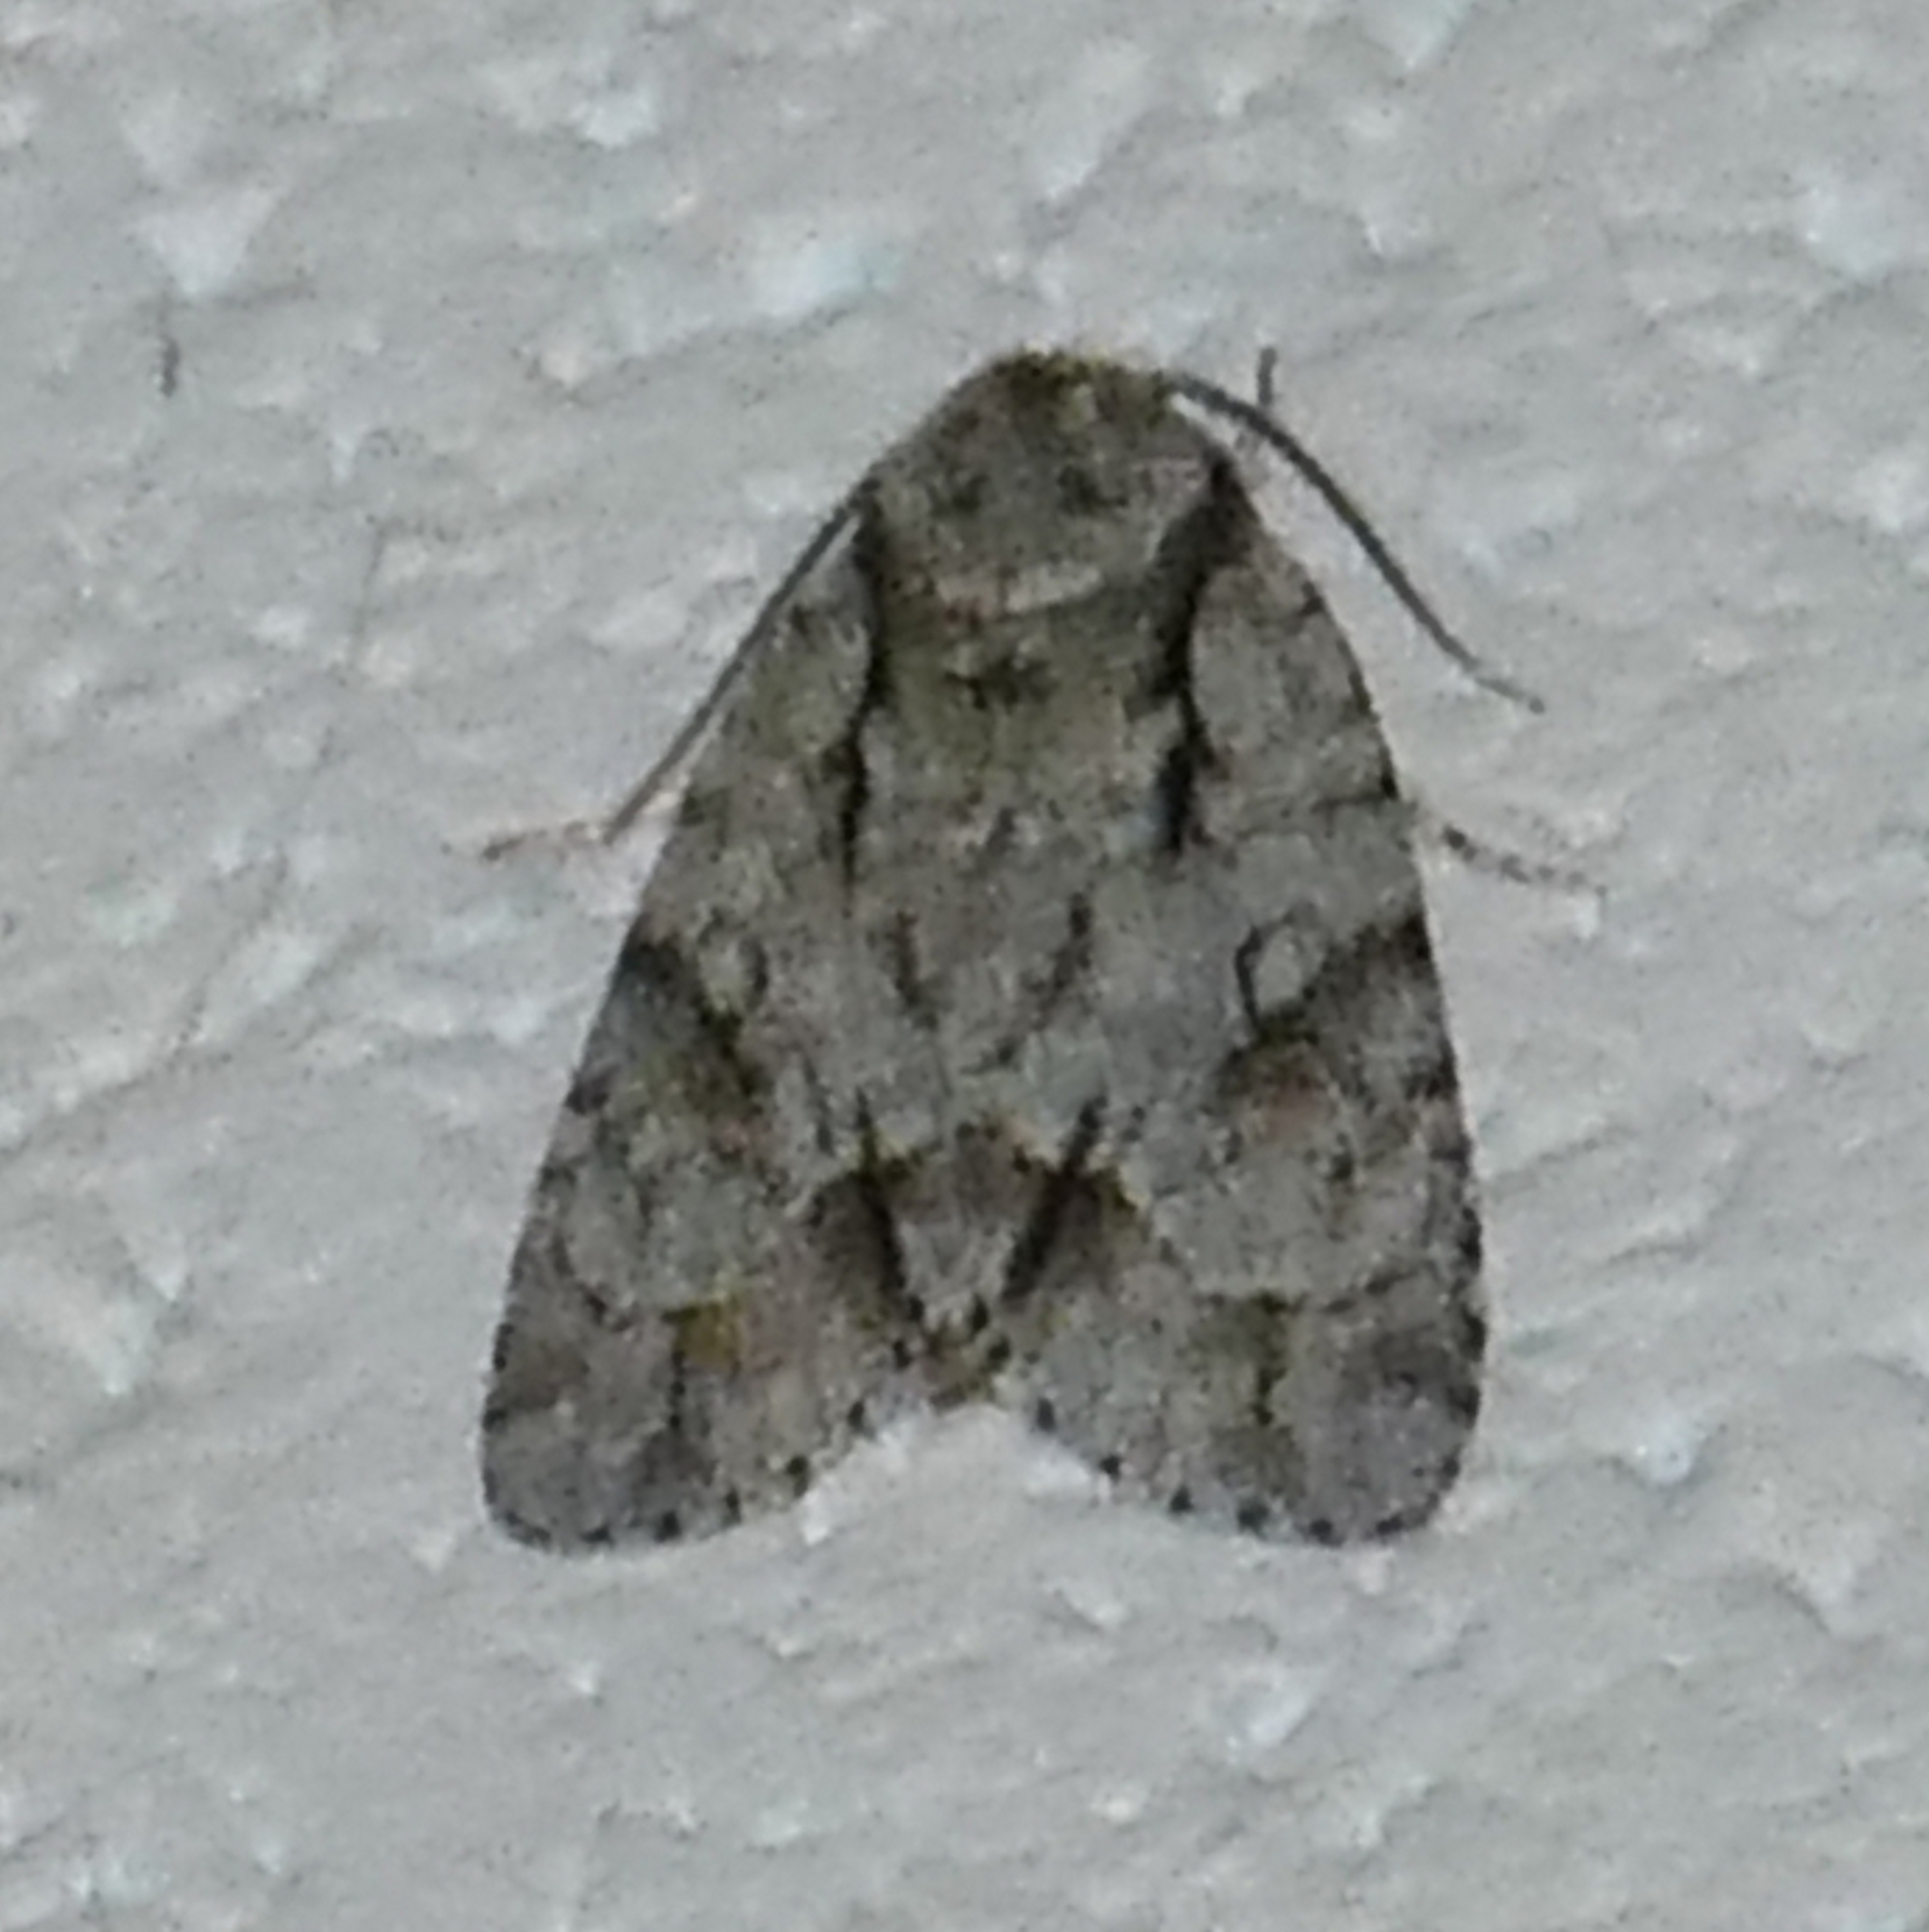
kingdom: Animalia
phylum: Arthropoda
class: Insecta
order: Lepidoptera
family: Noctuidae
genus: Acronicta
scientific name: Acronicta vinnula
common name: Delightful dagger
